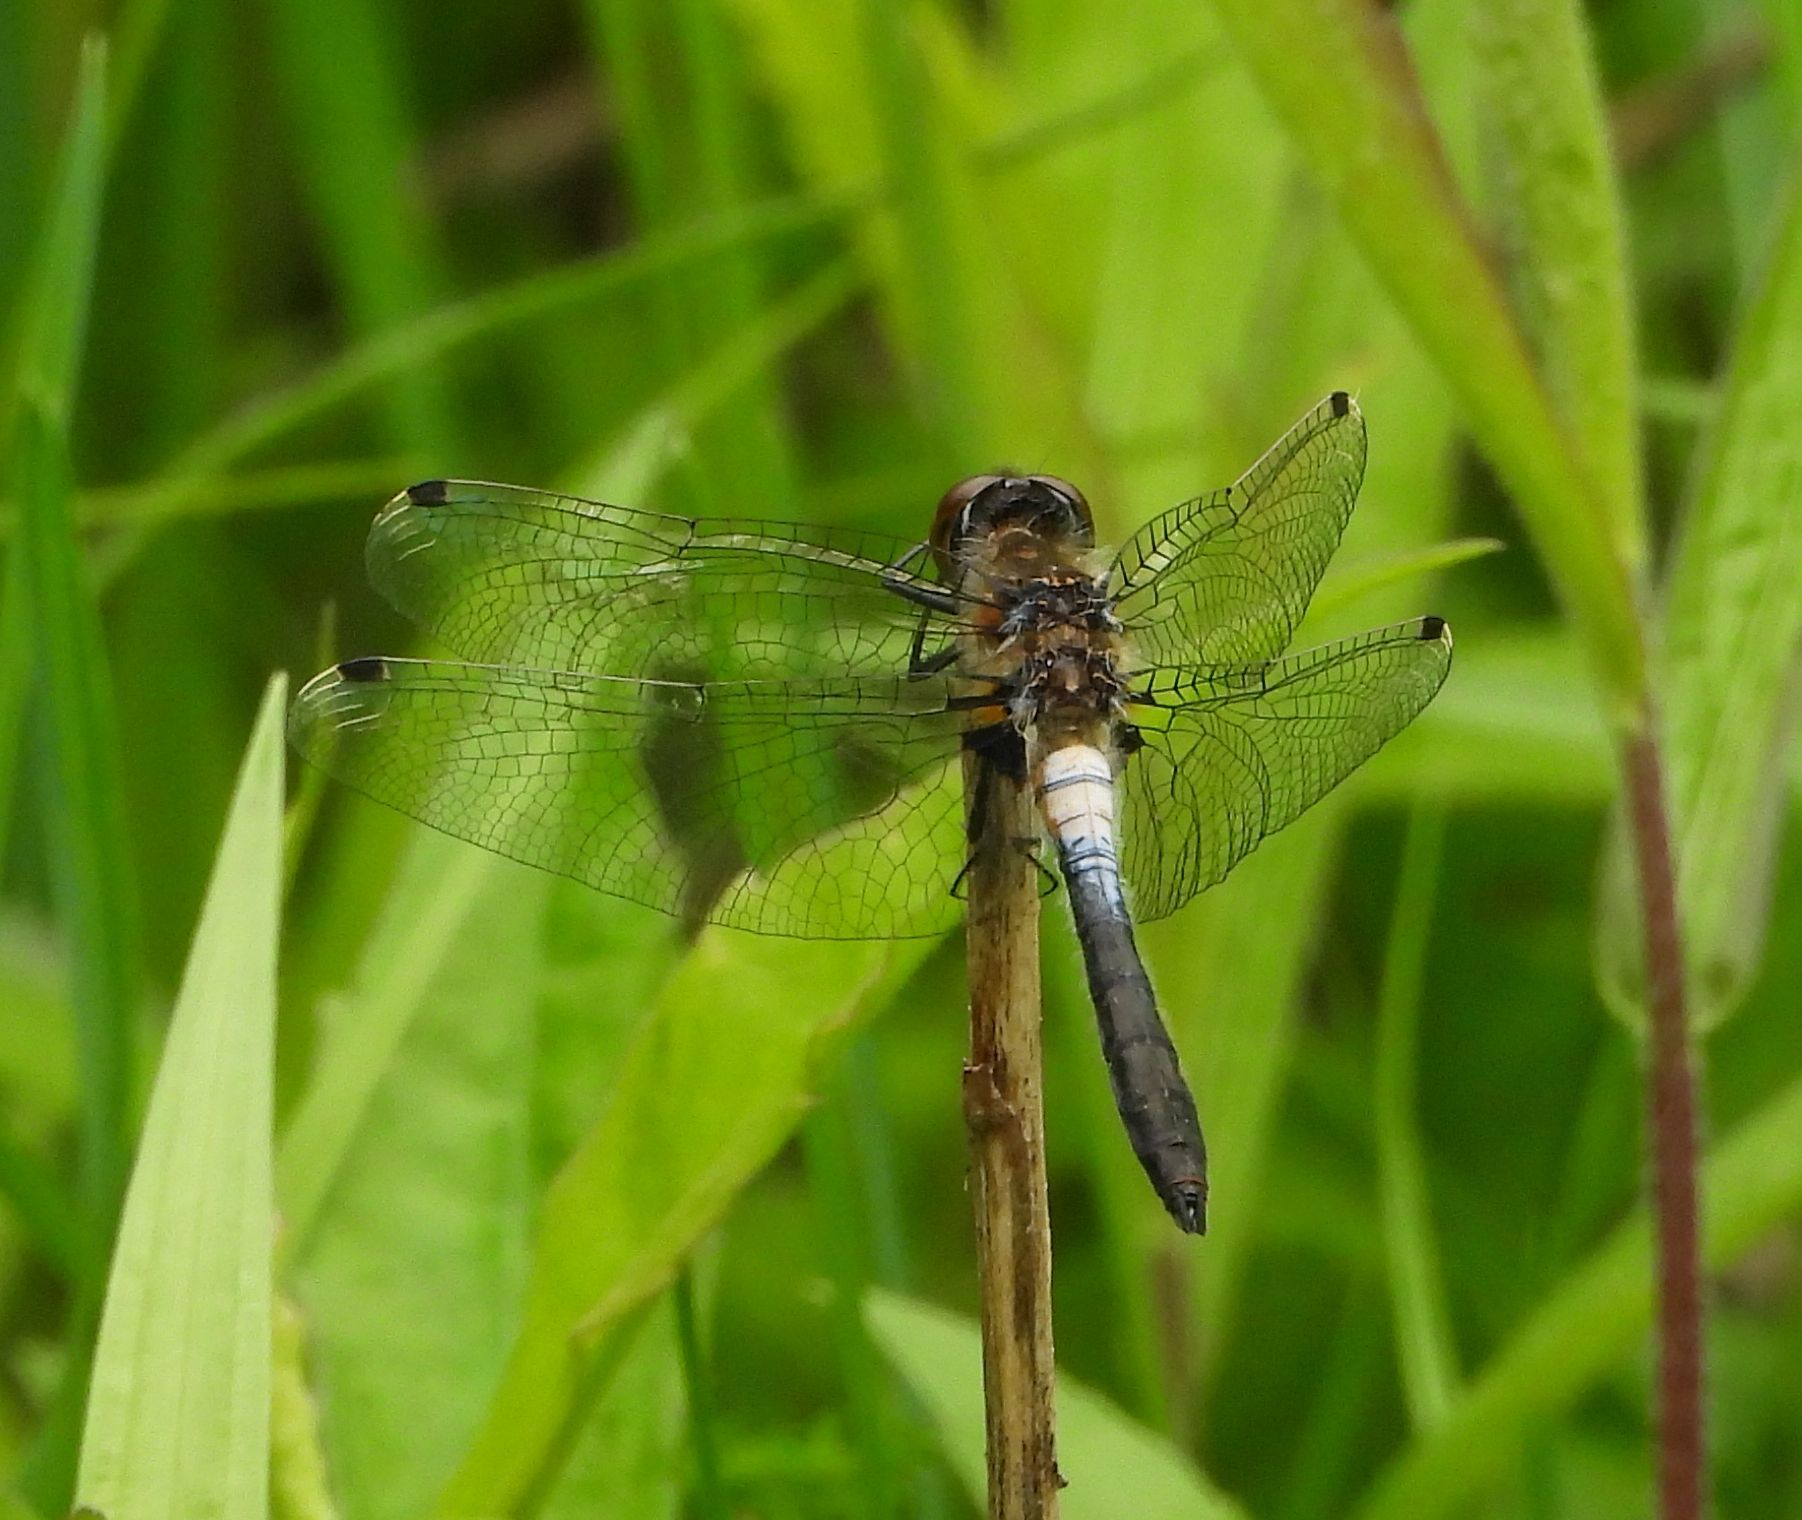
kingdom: Animalia
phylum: Arthropoda
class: Insecta
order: Odonata
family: Libellulidae
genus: Leucorrhinia
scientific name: Leucorrhinia frigida
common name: Frosted whiteface
